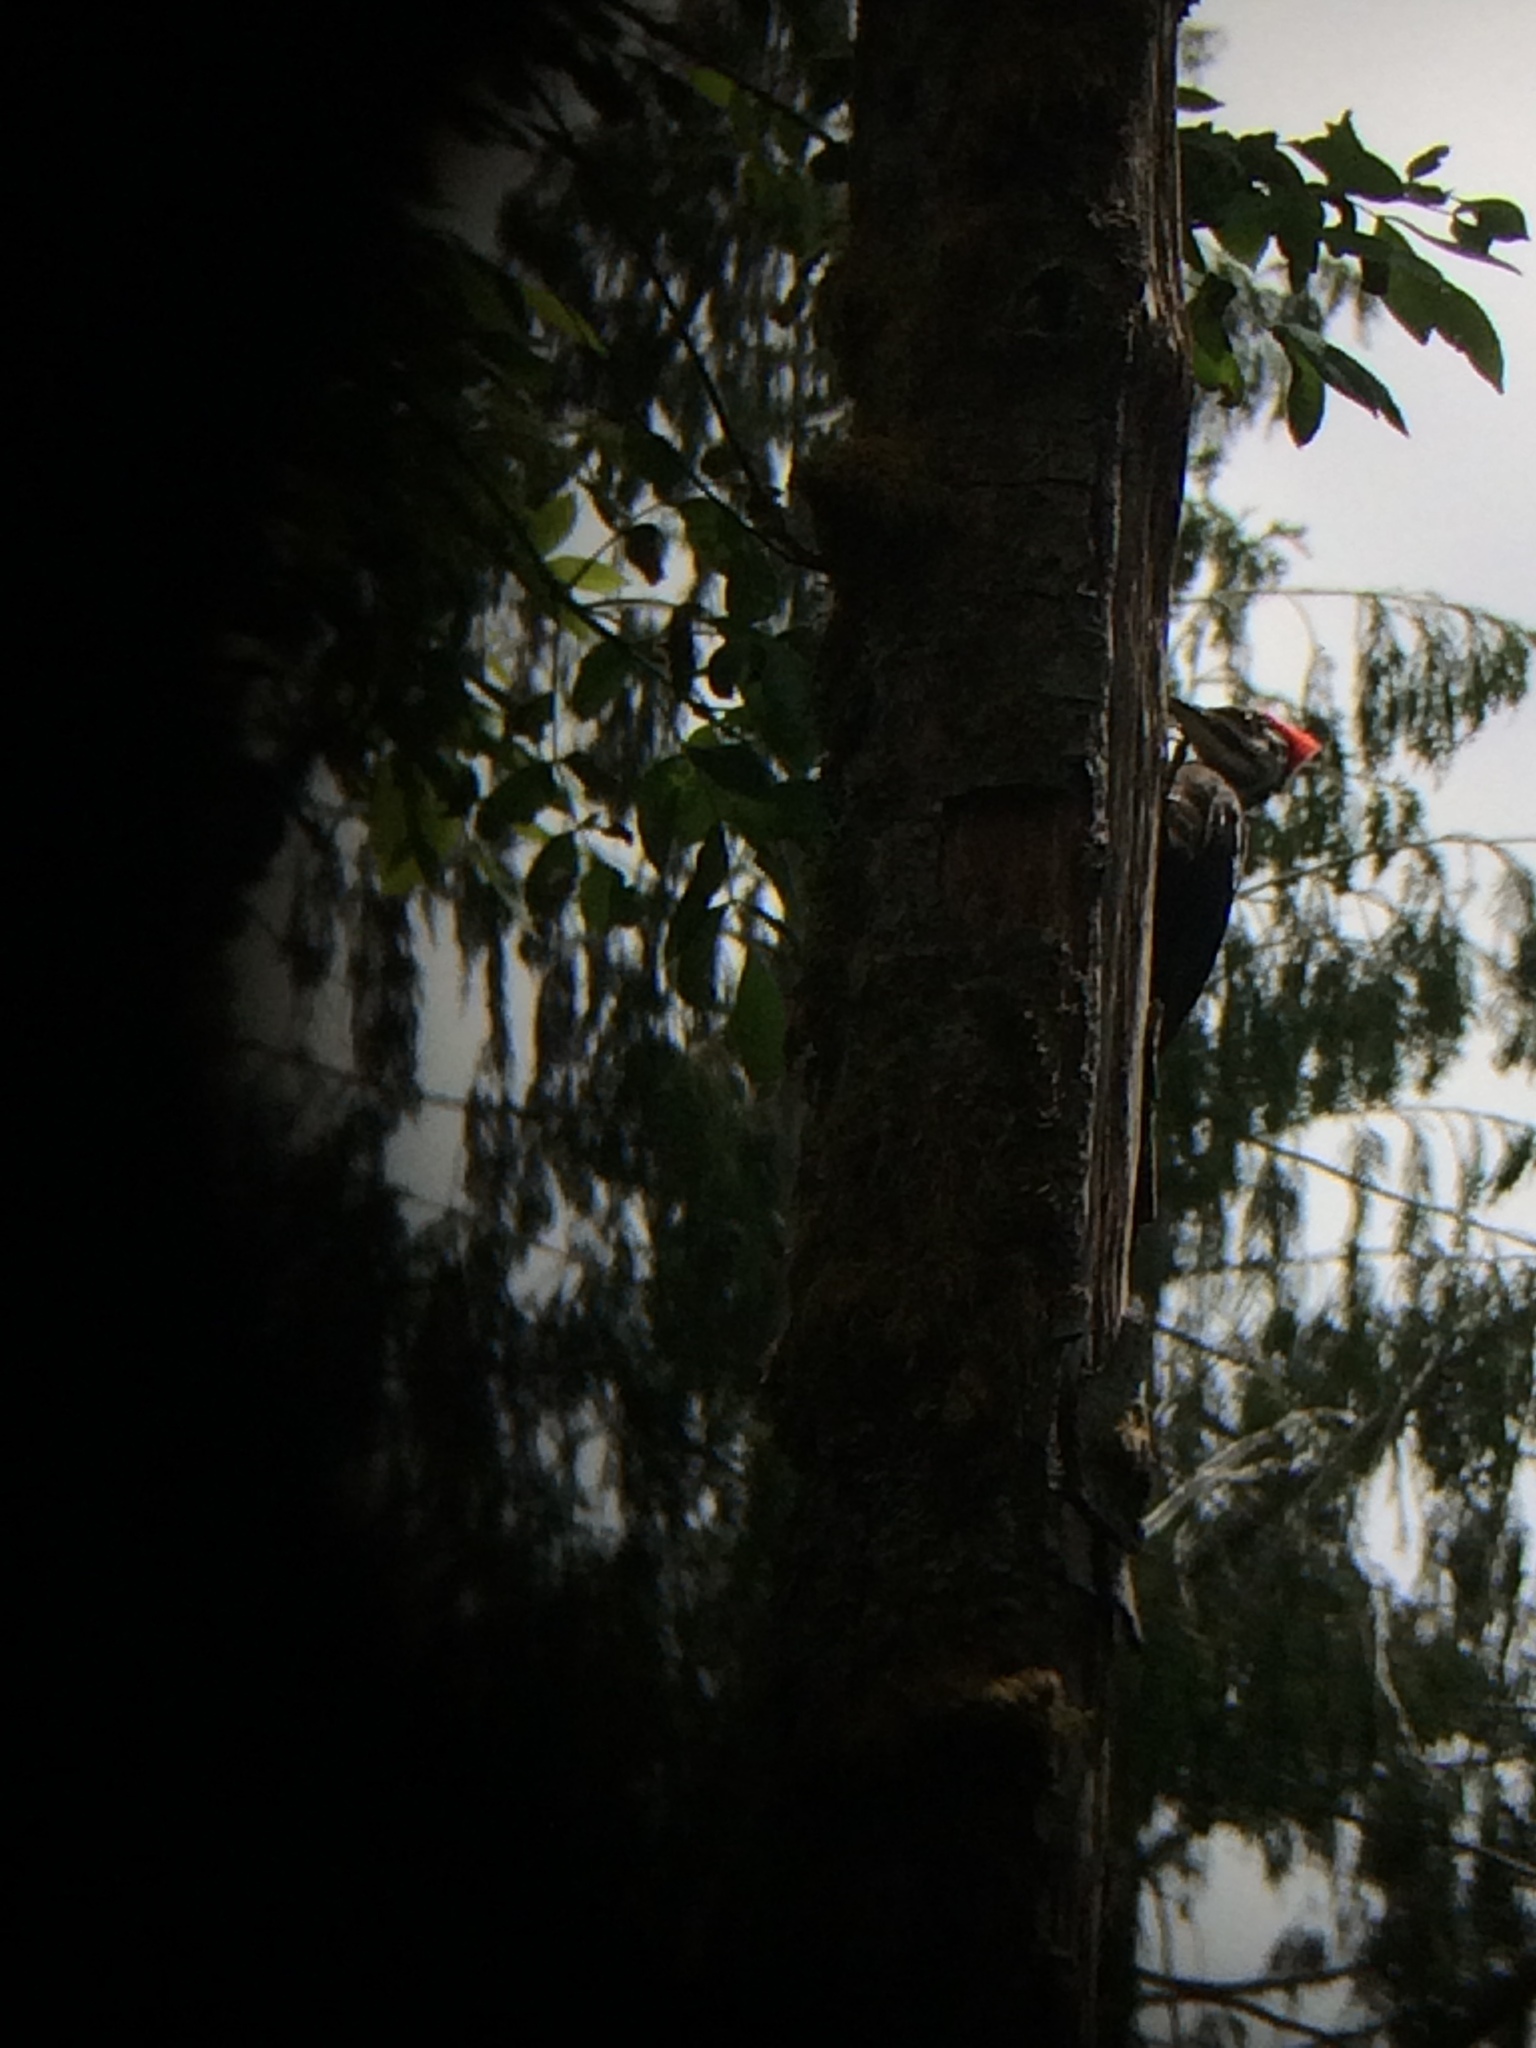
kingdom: Animalia
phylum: Chordata
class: Aves
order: Piciformes
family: Picidae
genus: Dryocopus
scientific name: Dryocopus pileatus
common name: Pileated woodpecker
